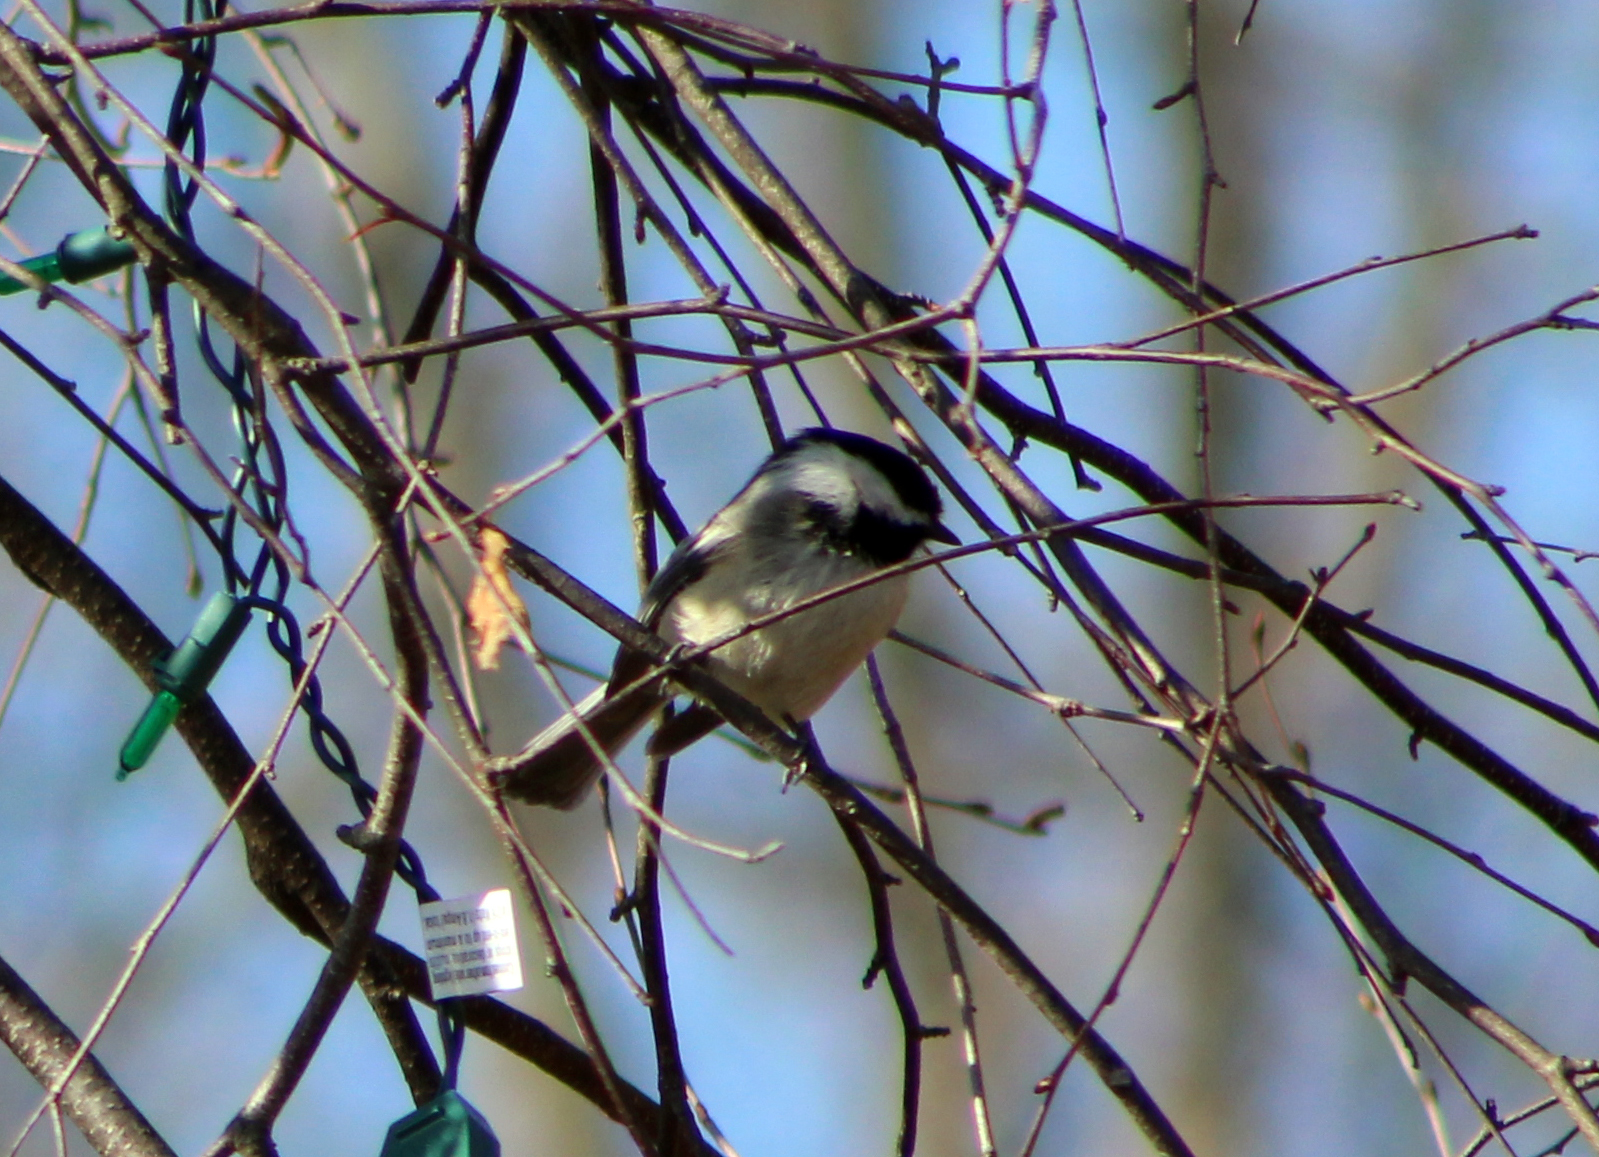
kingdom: Animalia
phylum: Chordata
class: Aves
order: Passeriformes
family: Paridae
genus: Poecile
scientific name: Poecile atricapillus
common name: Black-capped chickadee
